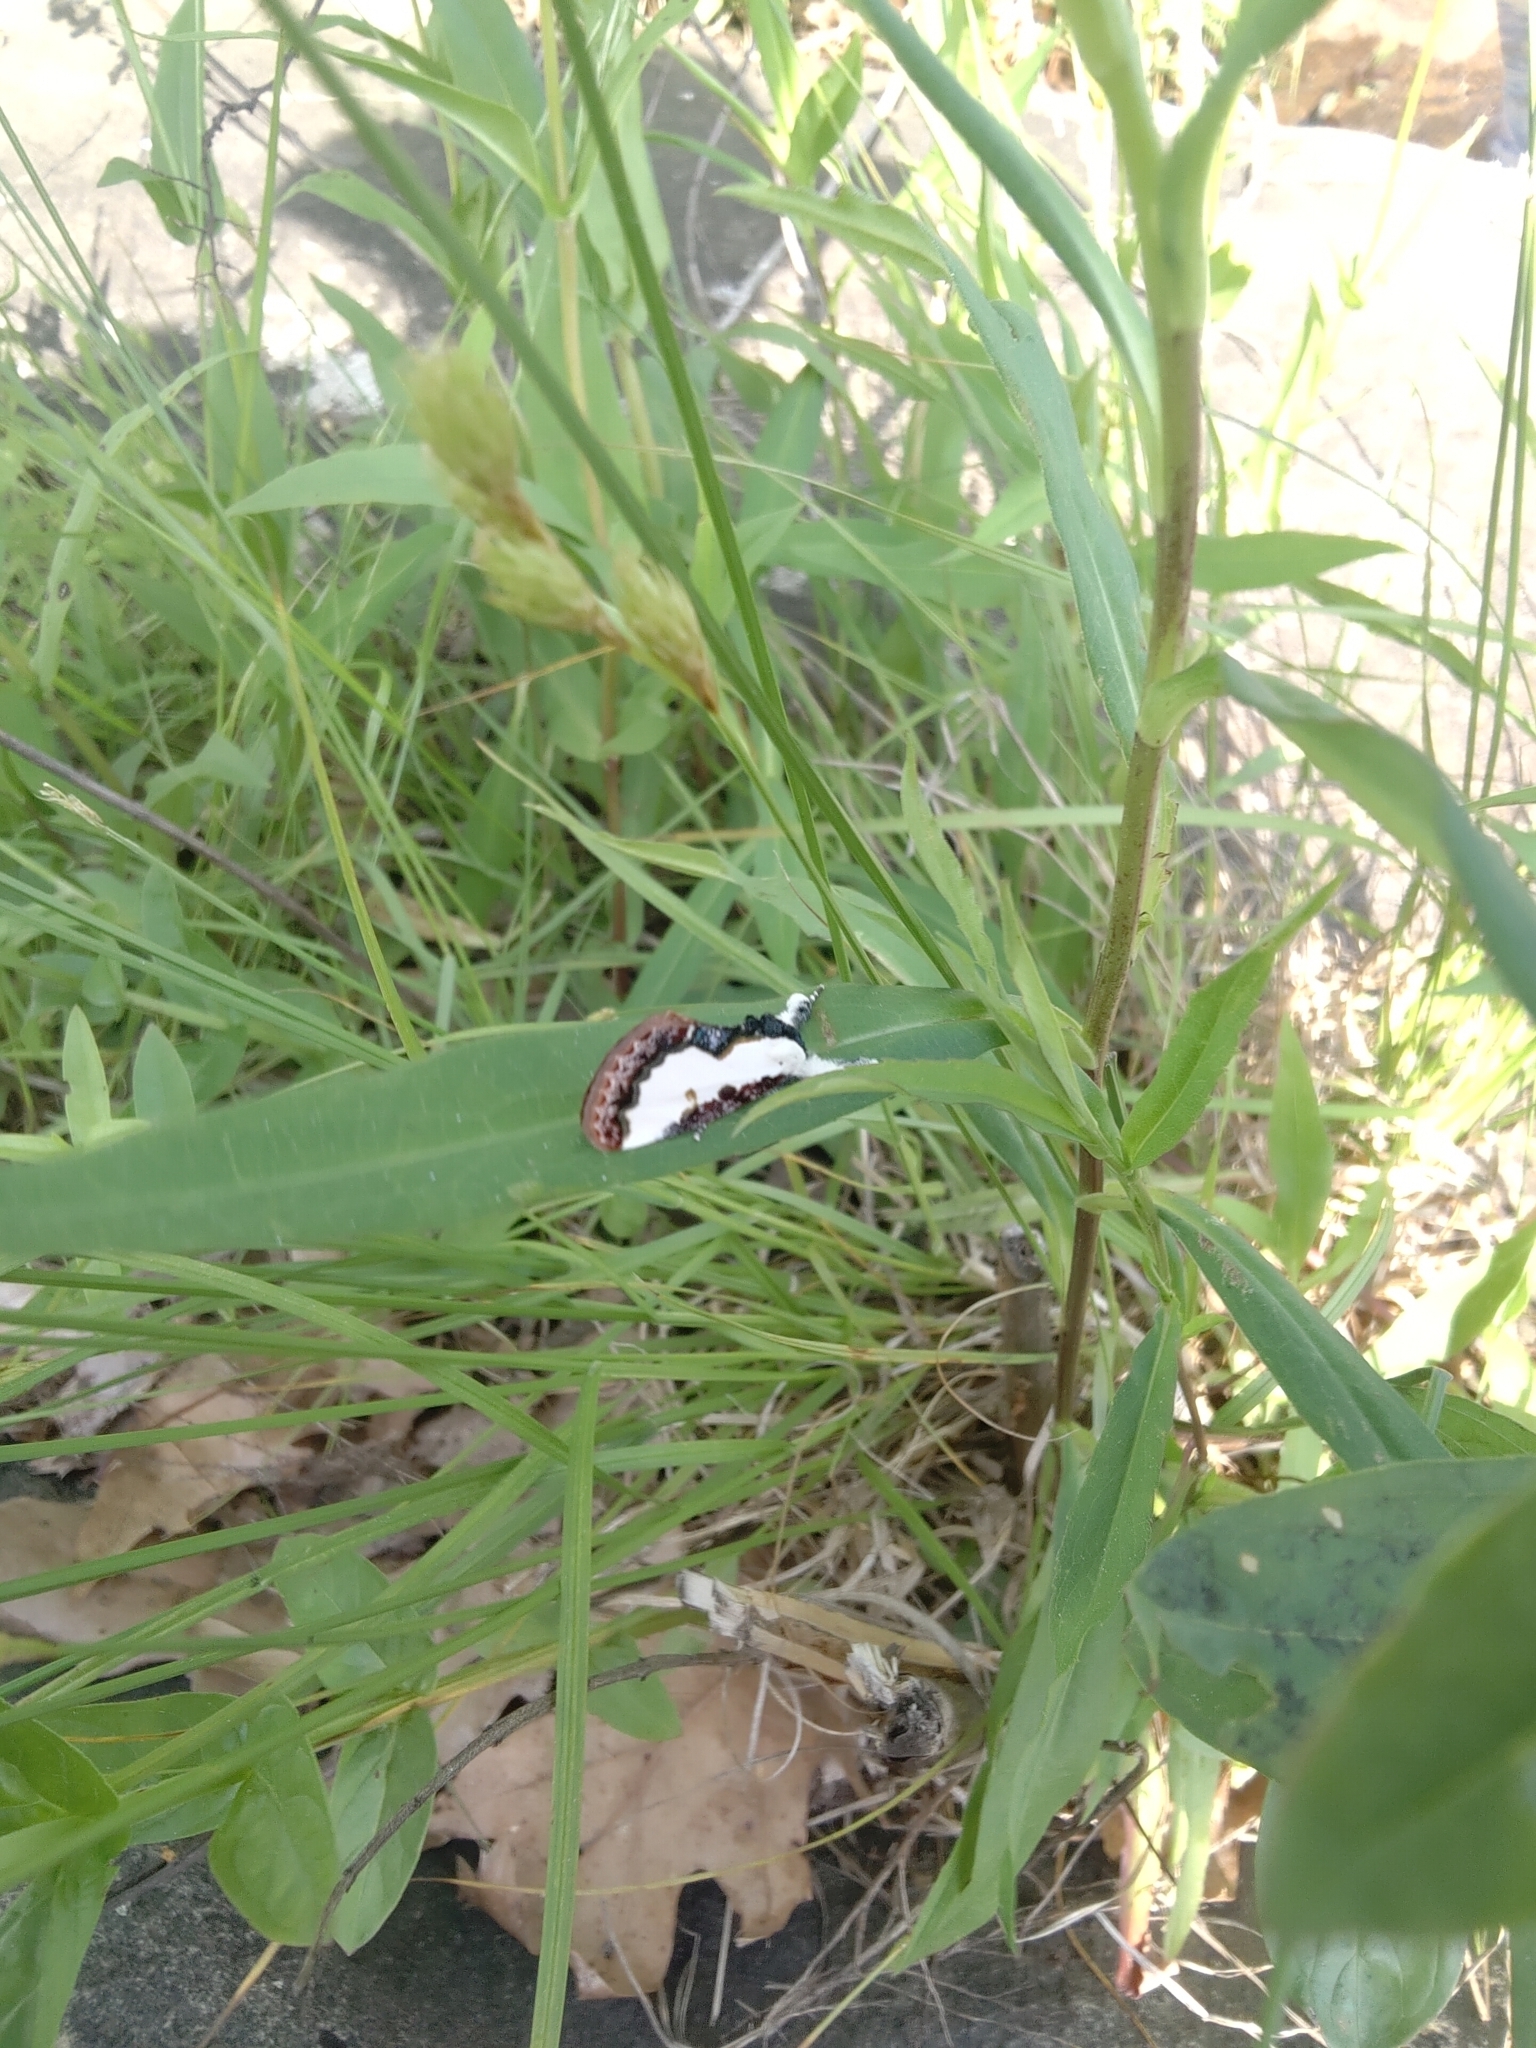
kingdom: Animalia
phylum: Arthropoda
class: Insecta
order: Lepidoptera
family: Noctuidae
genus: Eudryas
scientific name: Eudryas unio
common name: Pearly wood-nymph
